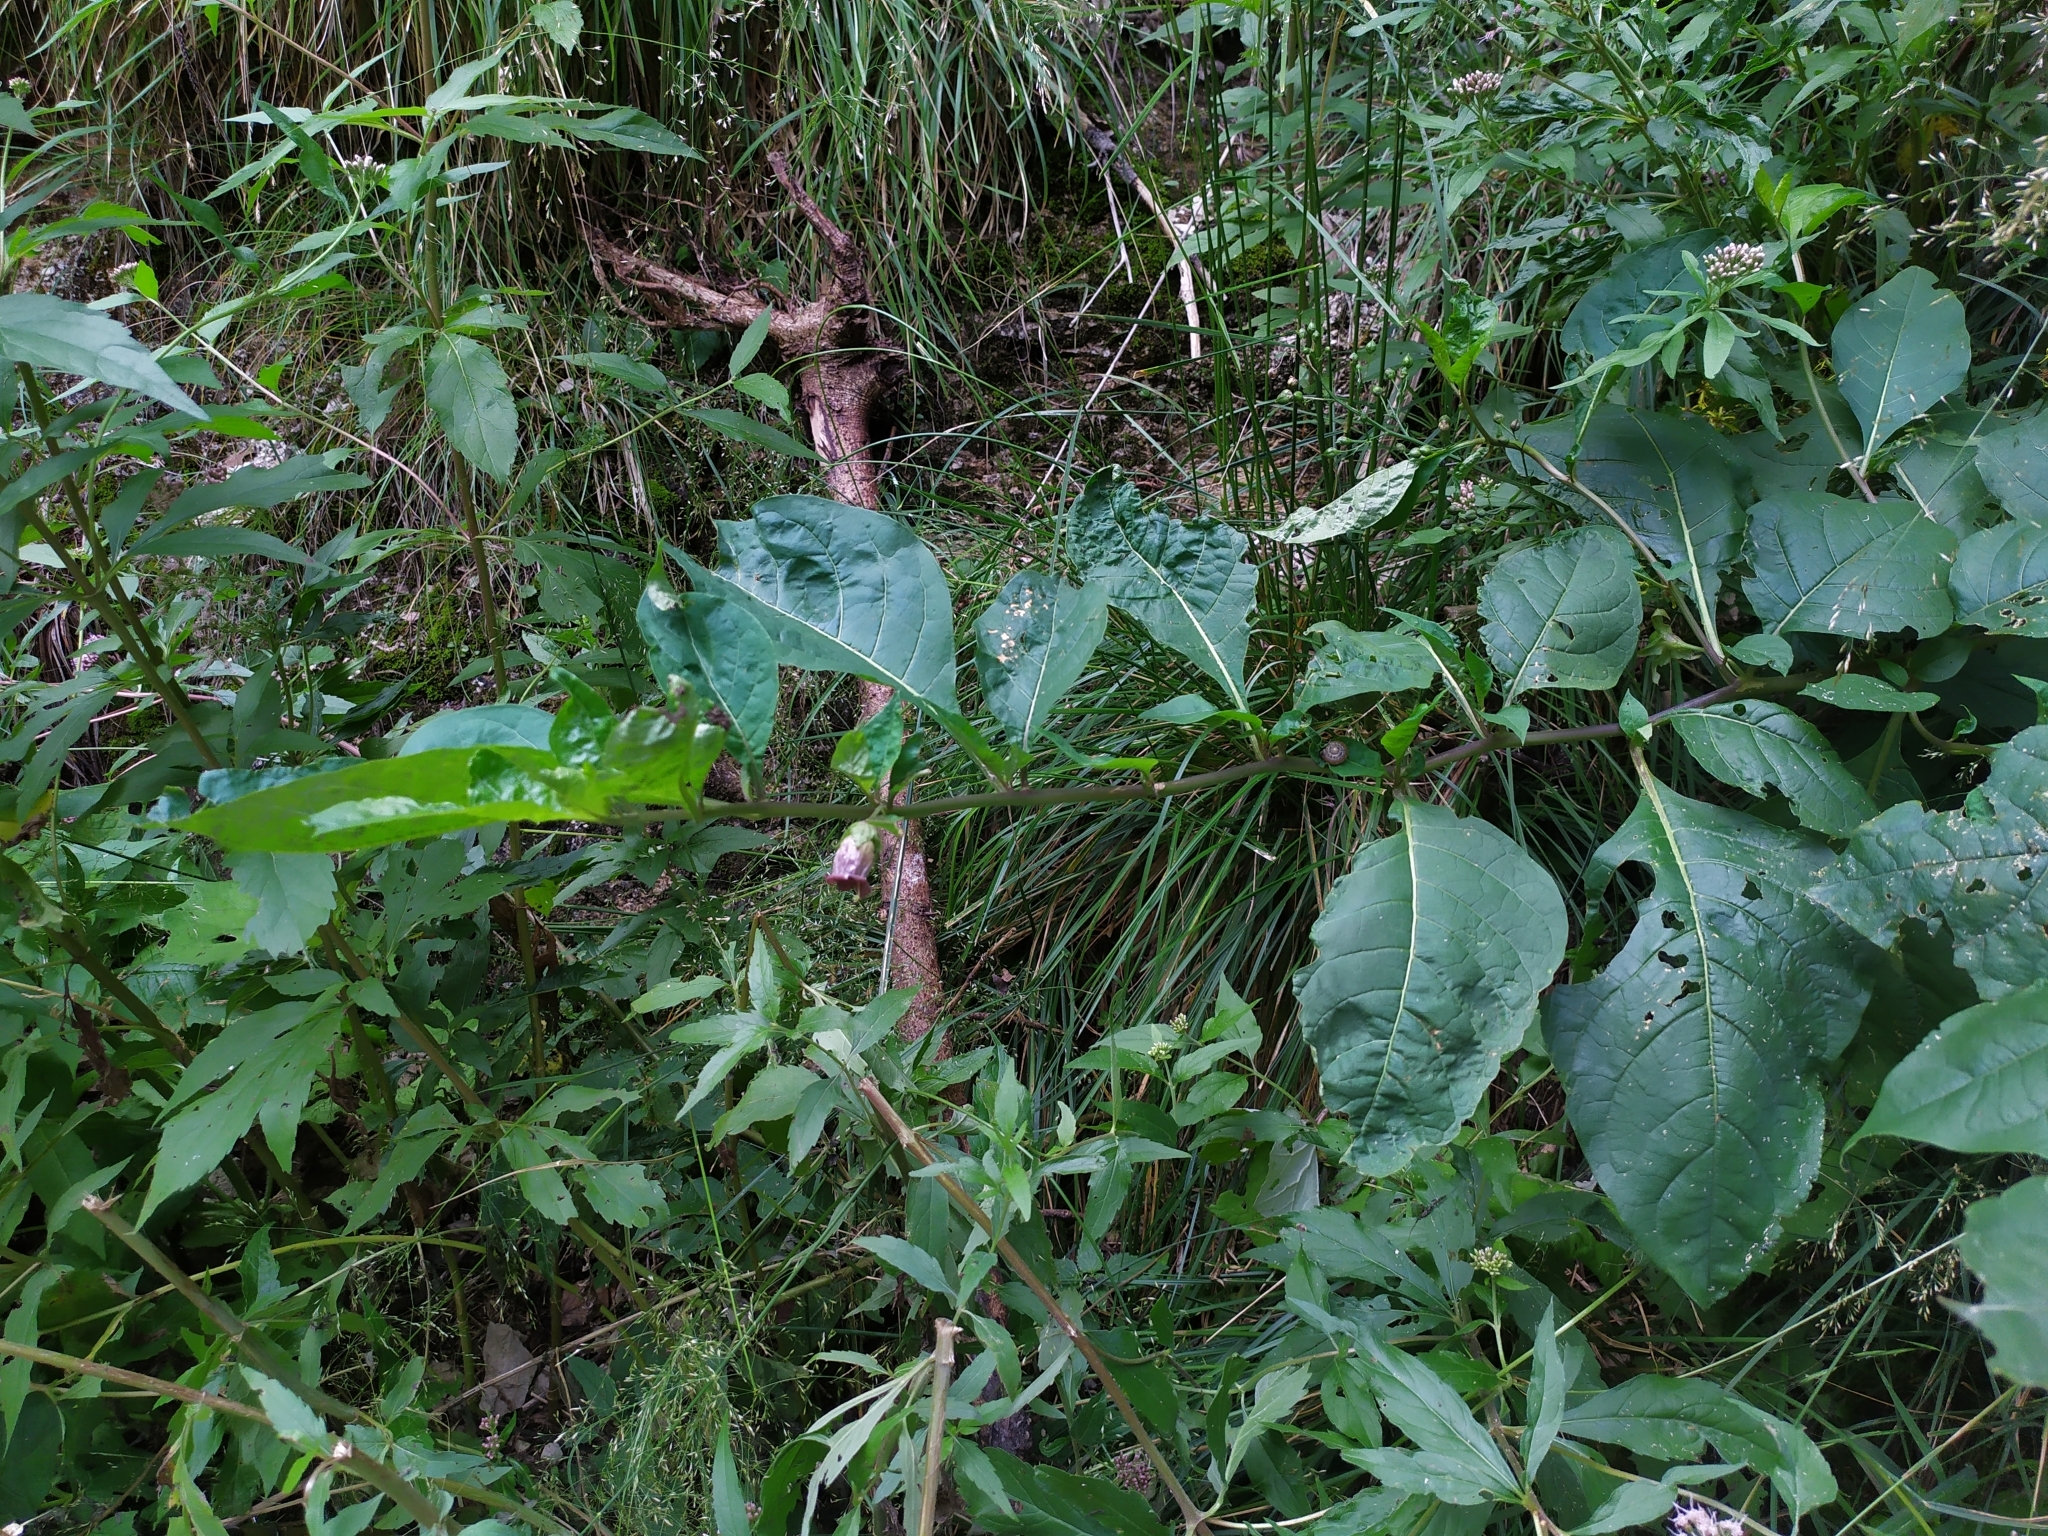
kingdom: Plantae
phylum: Tracheophyta
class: Magnoliopsida
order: Solanales
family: Solanaceae
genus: Atropa
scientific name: Atropa belladonna
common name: Deadly nightshade
